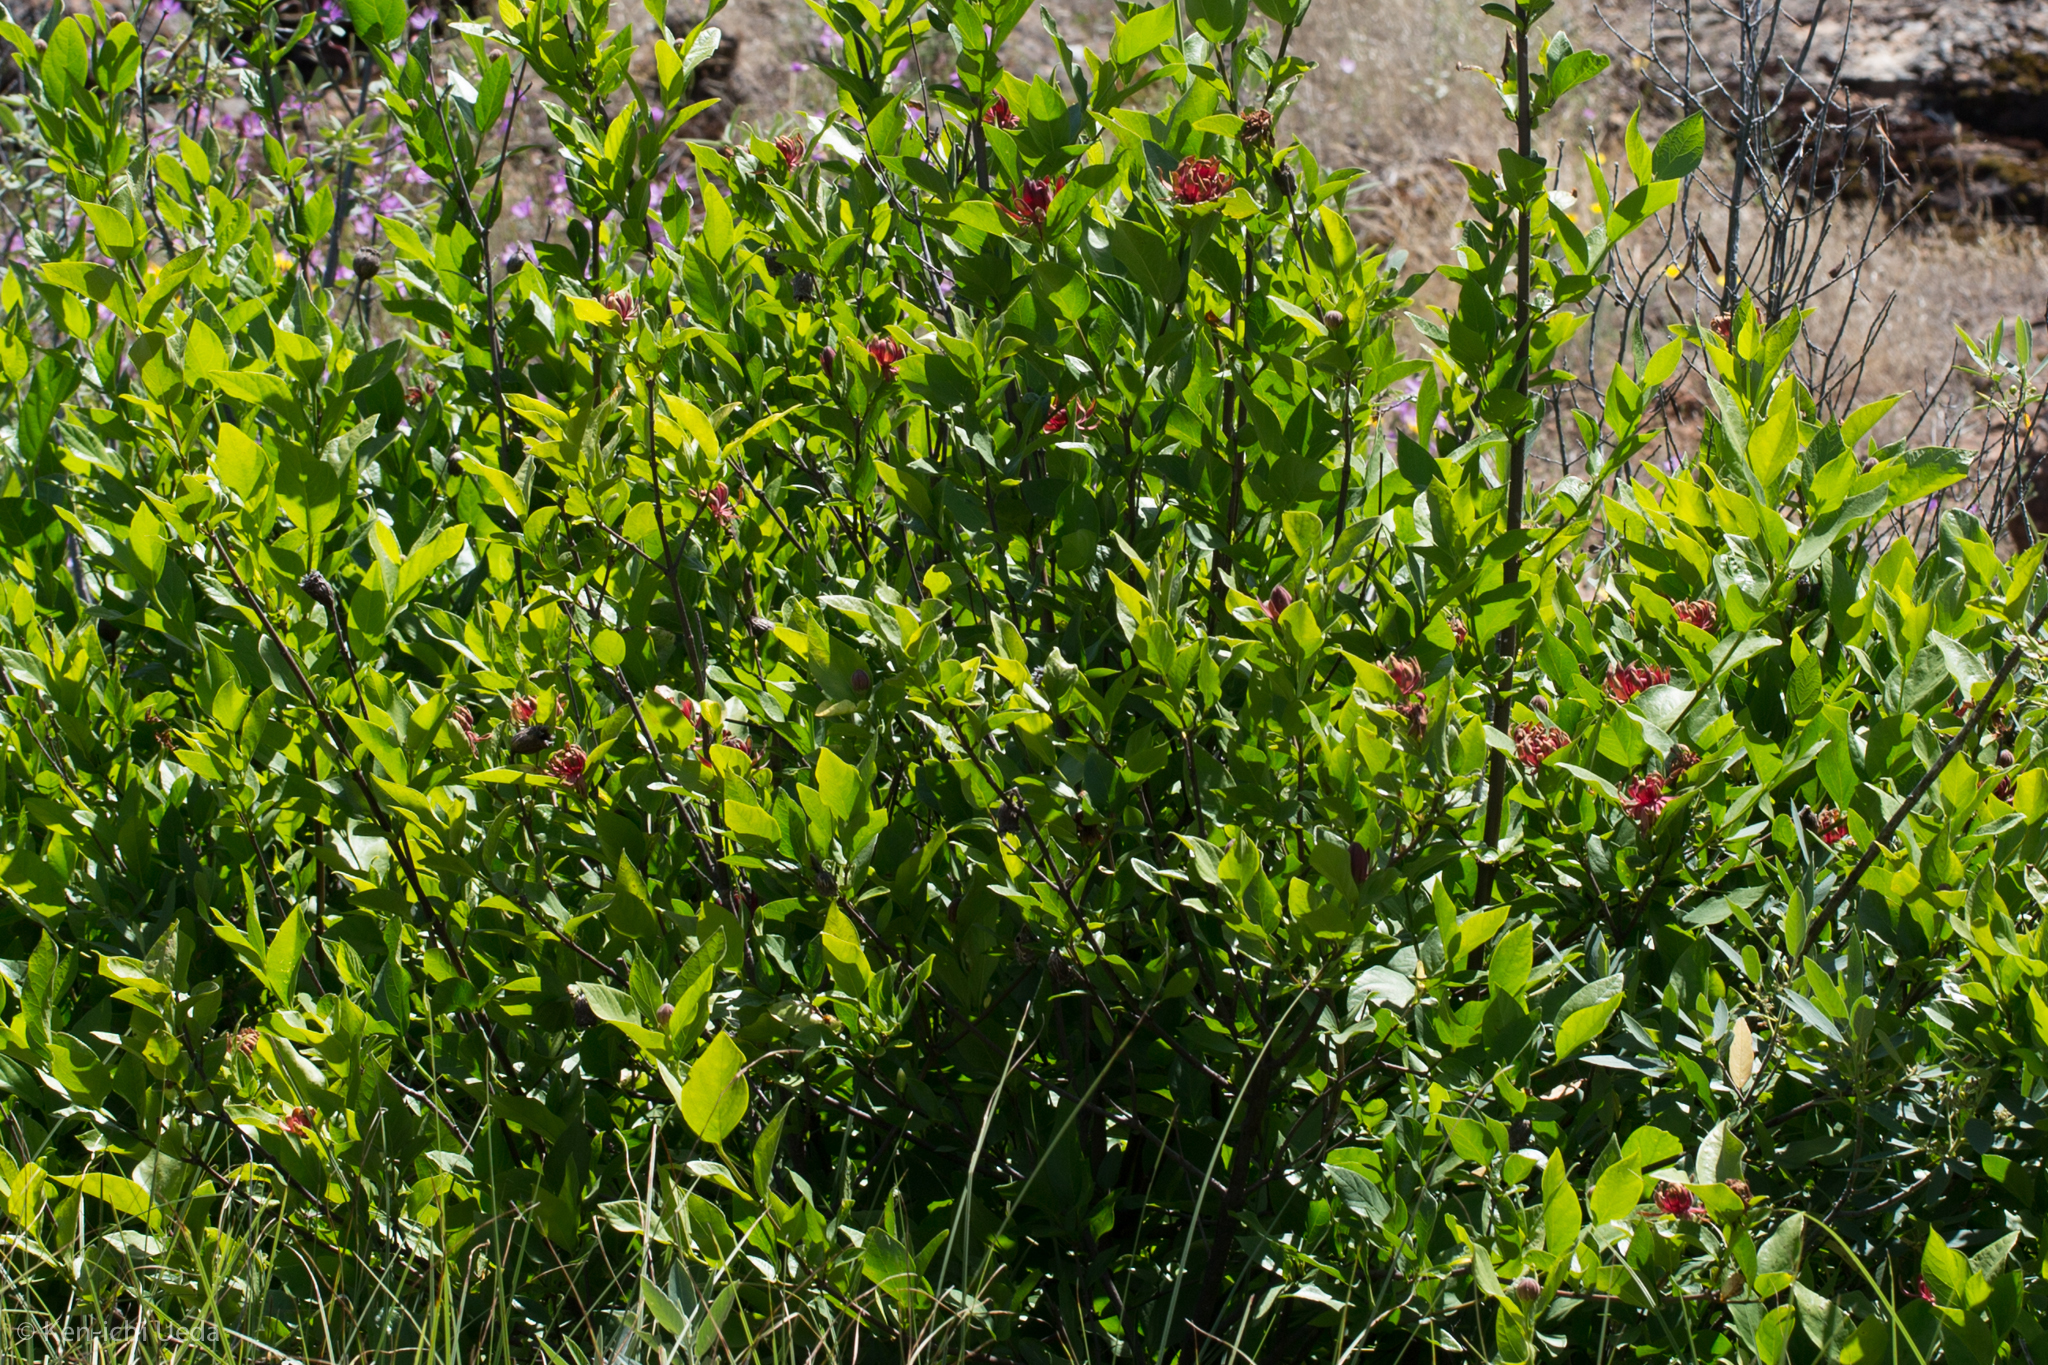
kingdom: Plantae
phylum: Tracheophyta
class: Magnoliopsida
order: Laurales
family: Calycanthaceae
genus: Calycanthus
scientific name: Calycanthus occidentalis
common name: California spicebush
